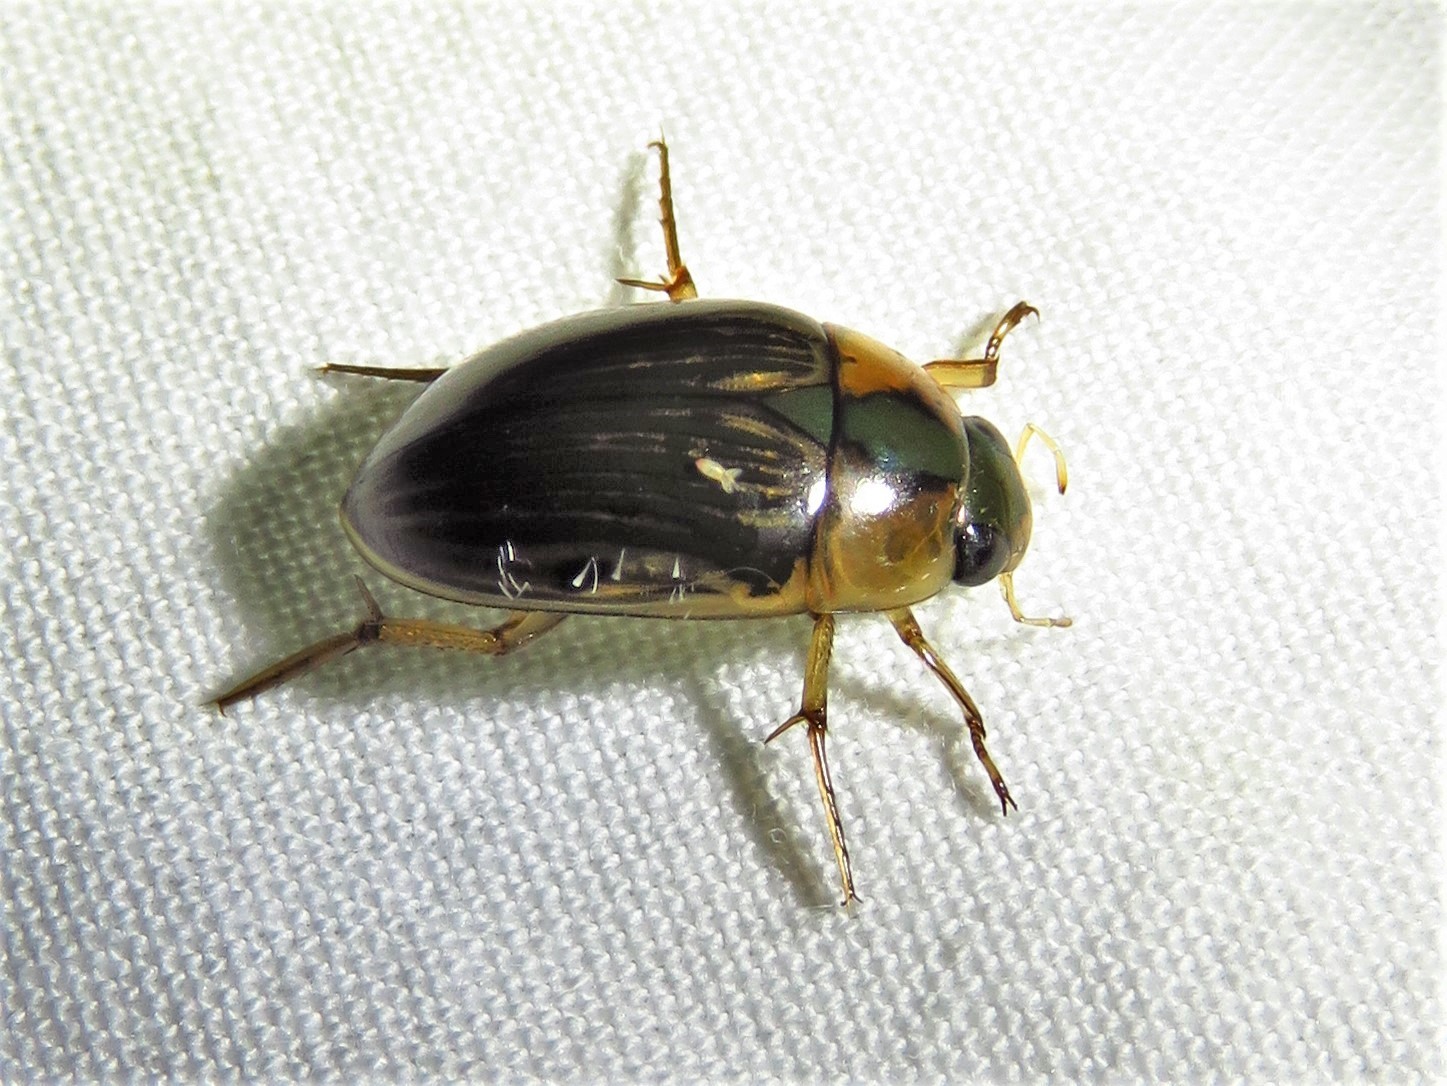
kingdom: Animalia
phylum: Arthropoda
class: Insecta
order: Coleoptera
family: Hydrophilidae
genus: Tropisternus
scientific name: Tropisternus collaris
